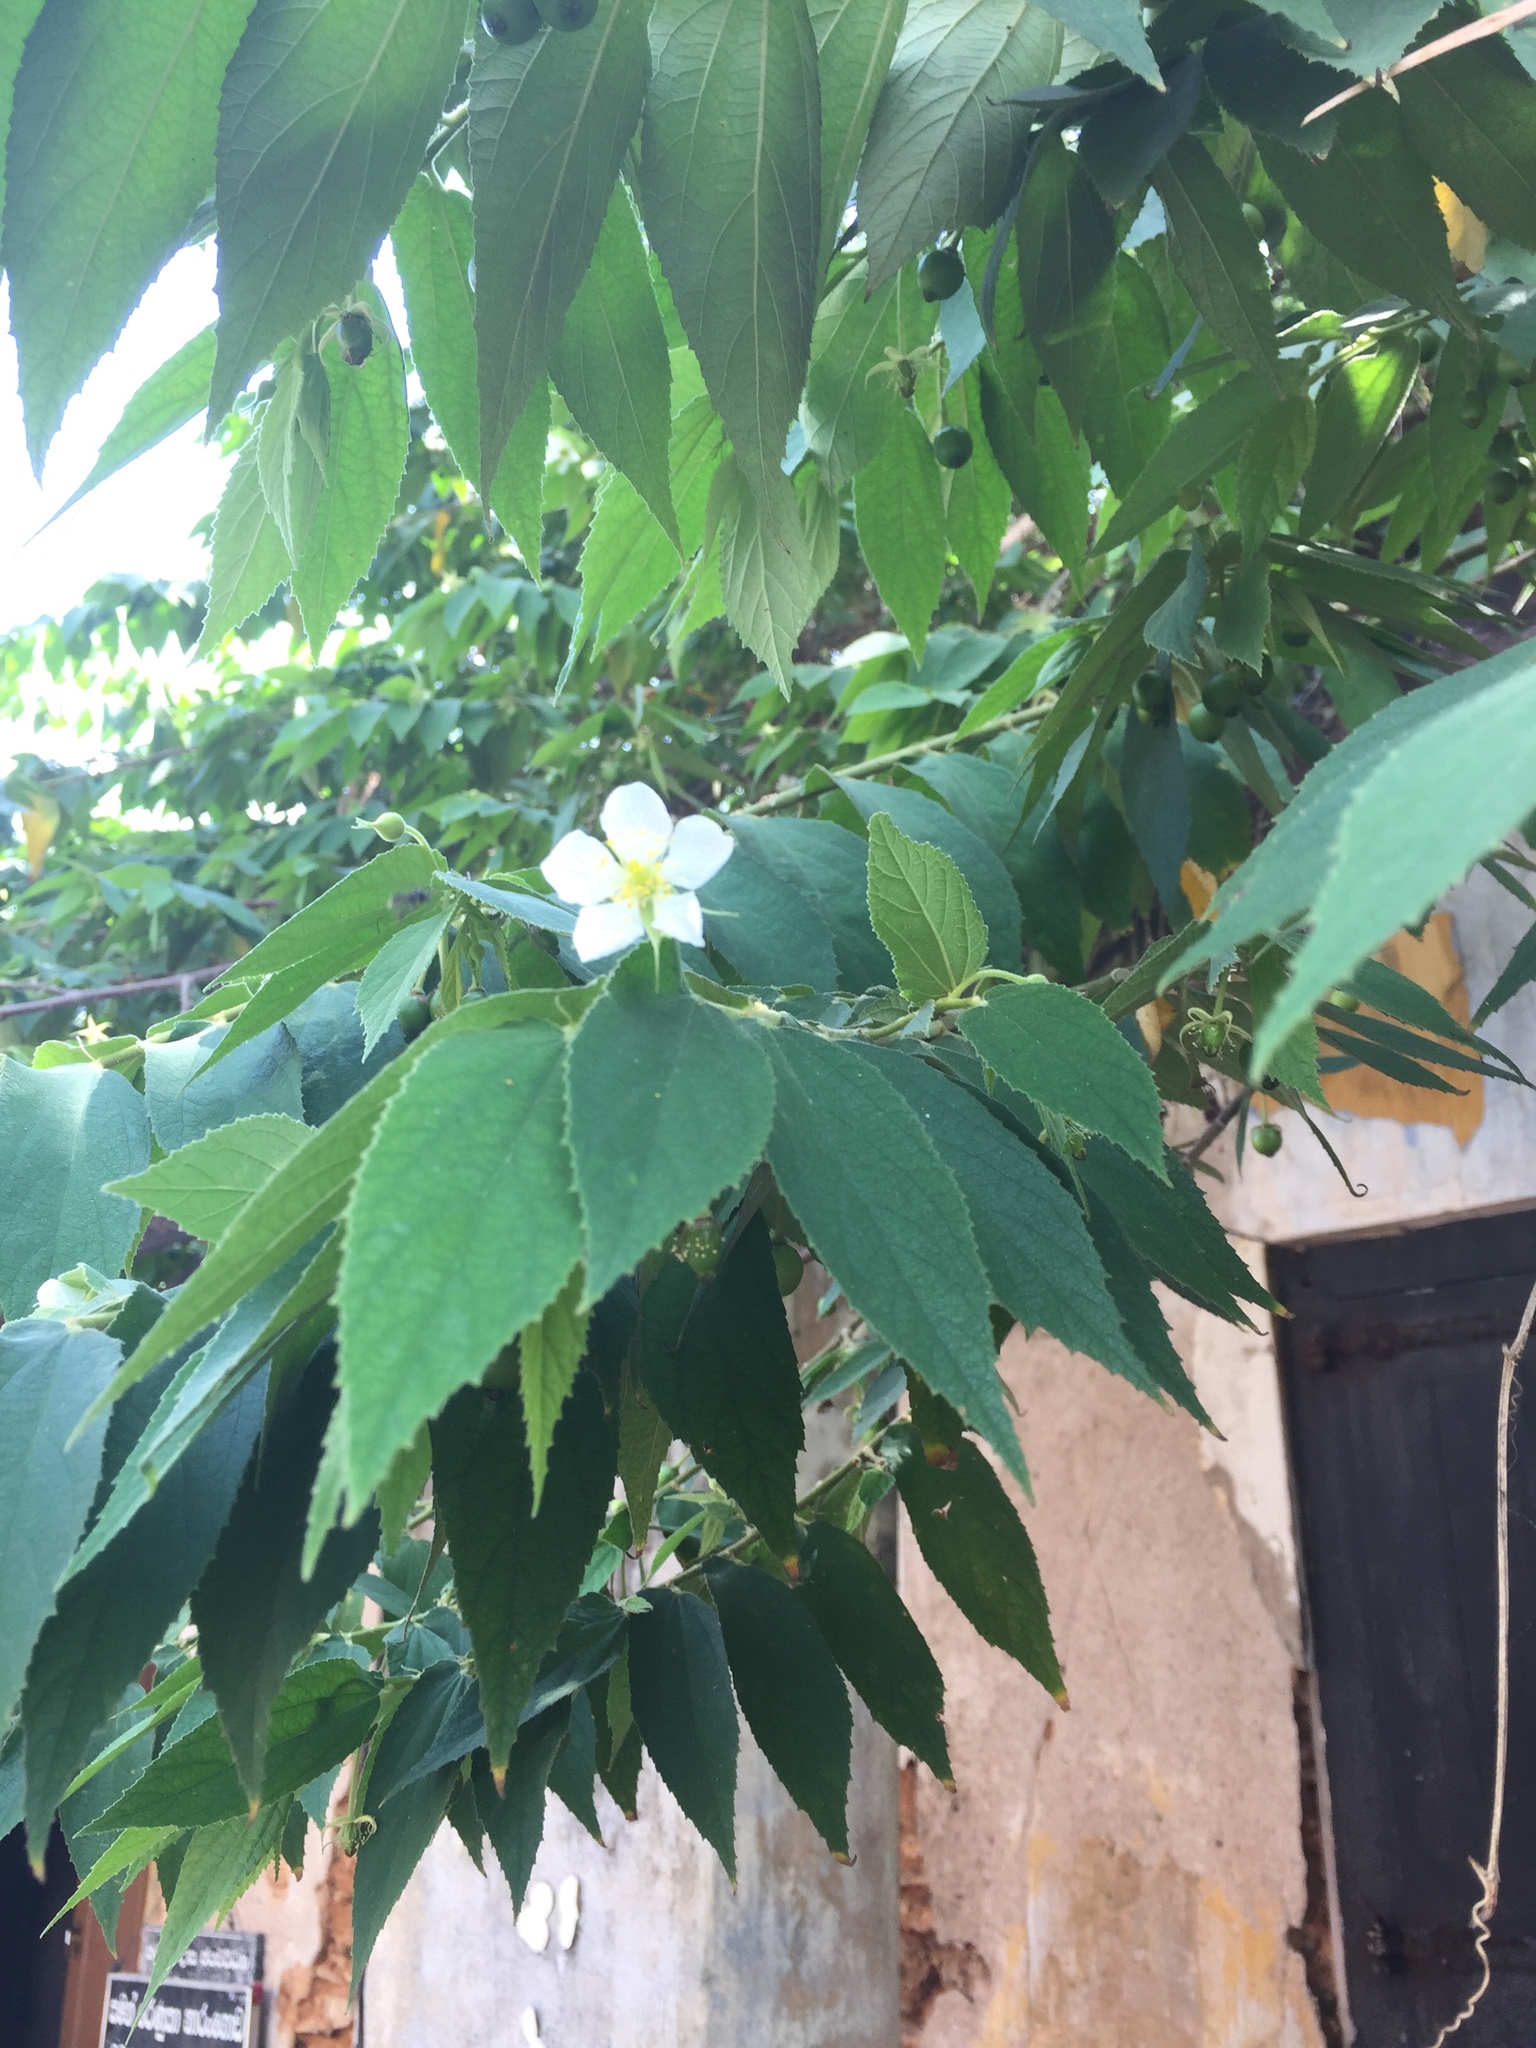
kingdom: Plantae
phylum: Tracheophyta
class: Magnoliopsida
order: Malvales
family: Muntingiaceae
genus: Muntingia
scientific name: Muntingia calabura
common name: Strawberrytree
